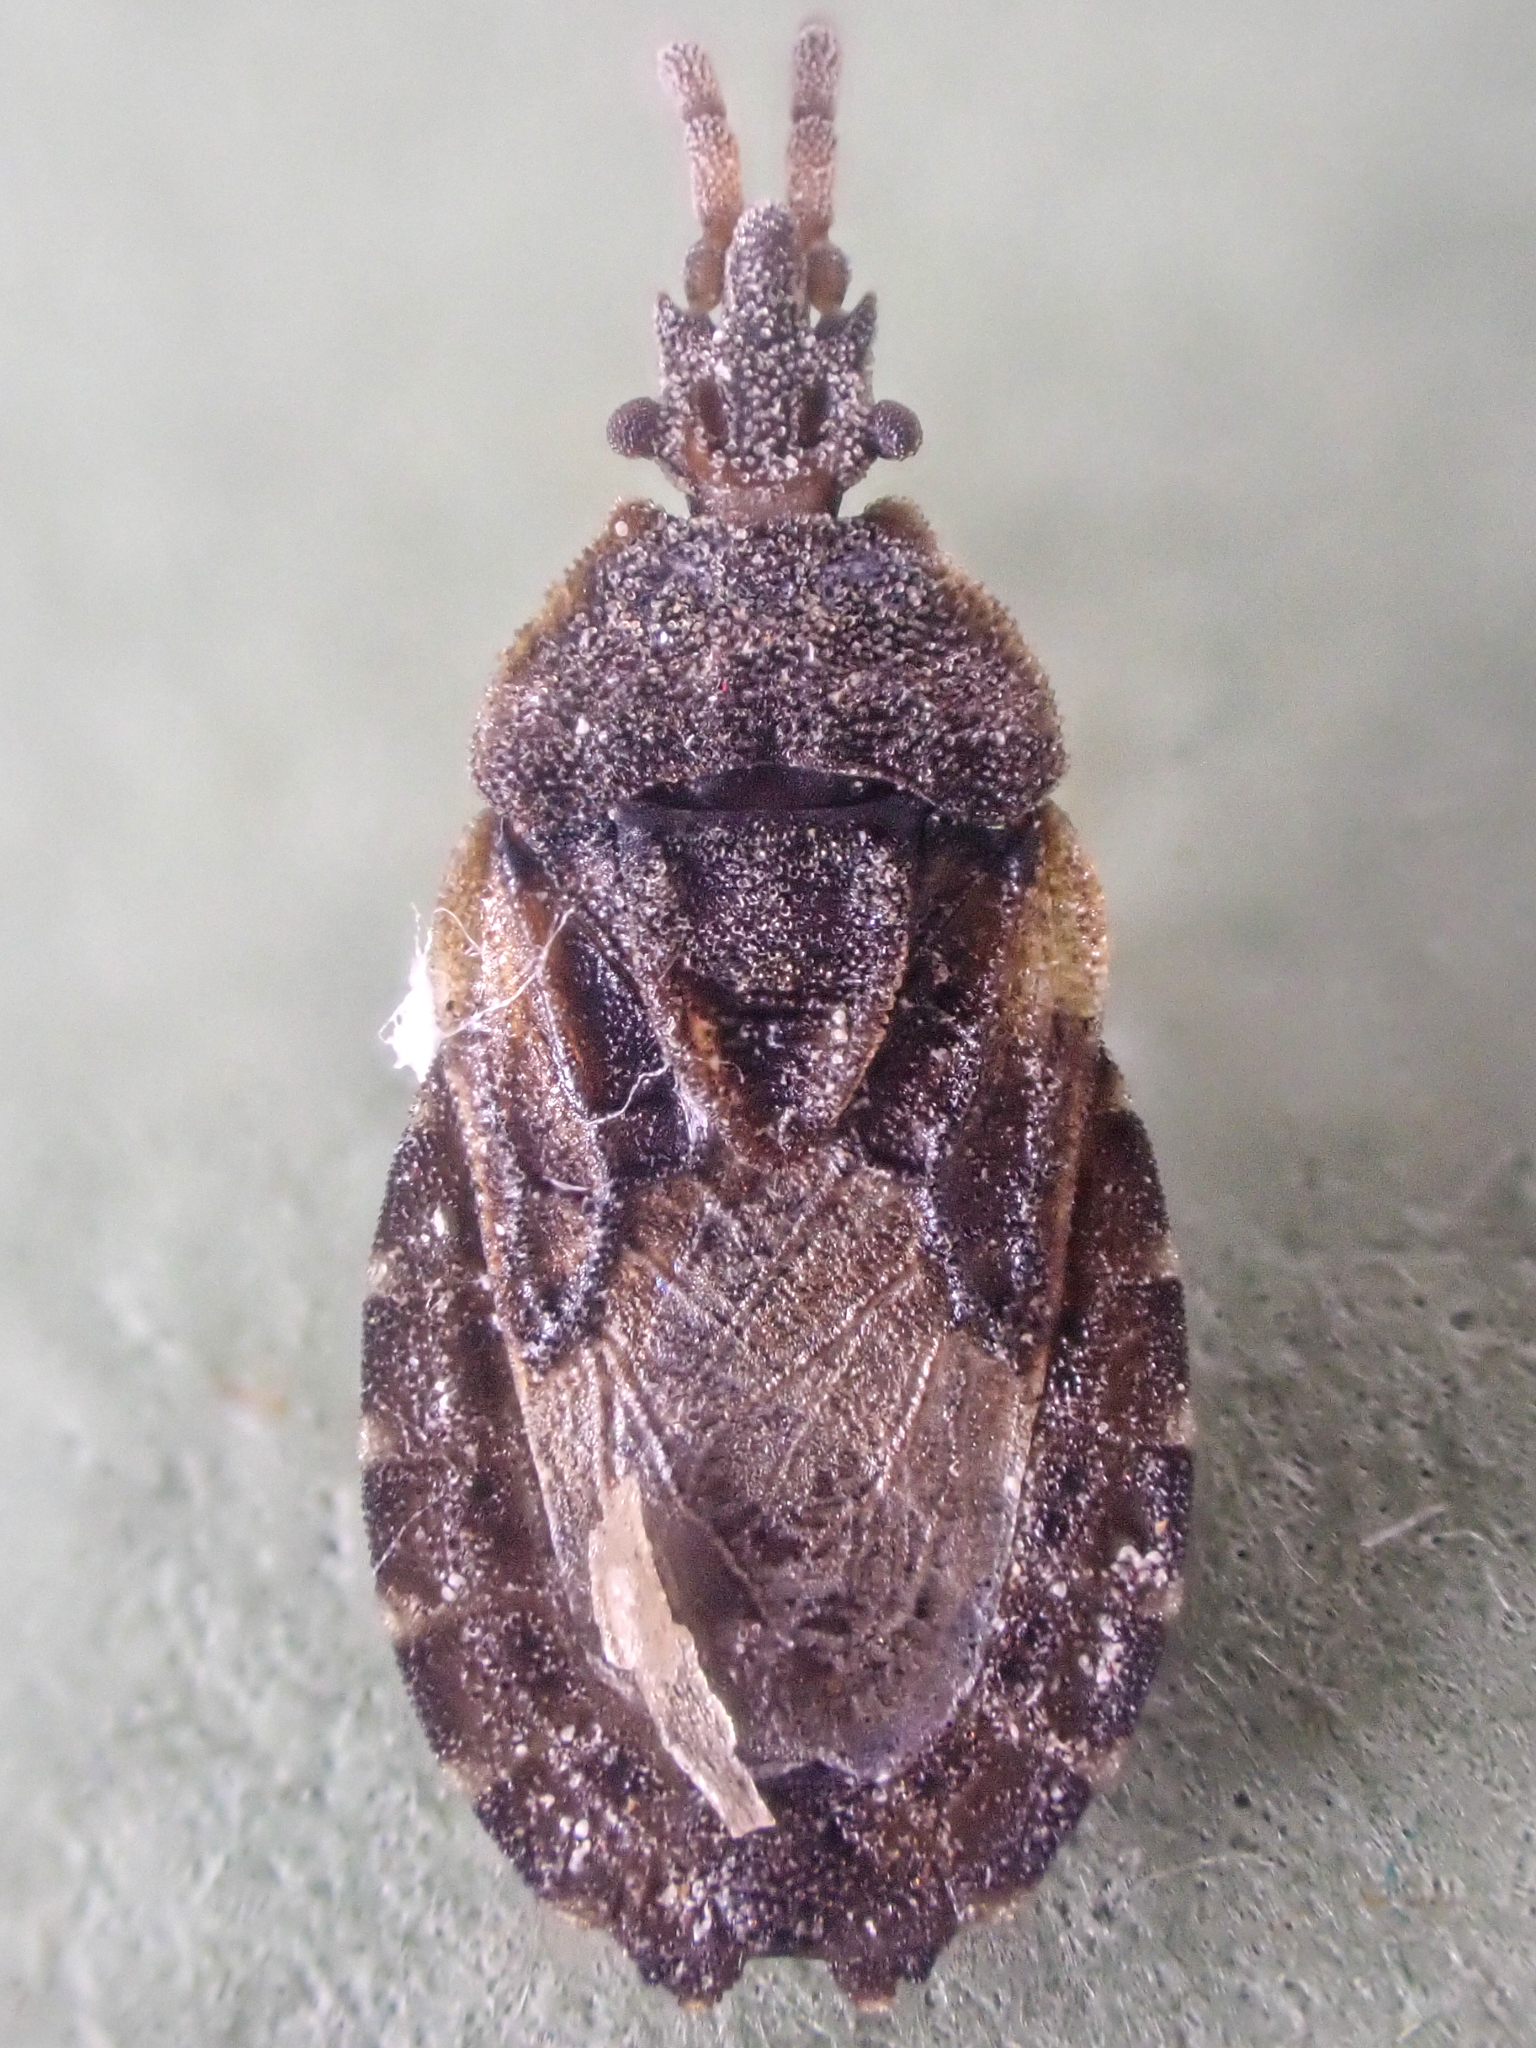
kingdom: Animalia
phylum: Arthropoda
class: Insecta
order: Hemiptera
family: Aradidae
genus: Aradus
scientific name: Aradus nigrinus
